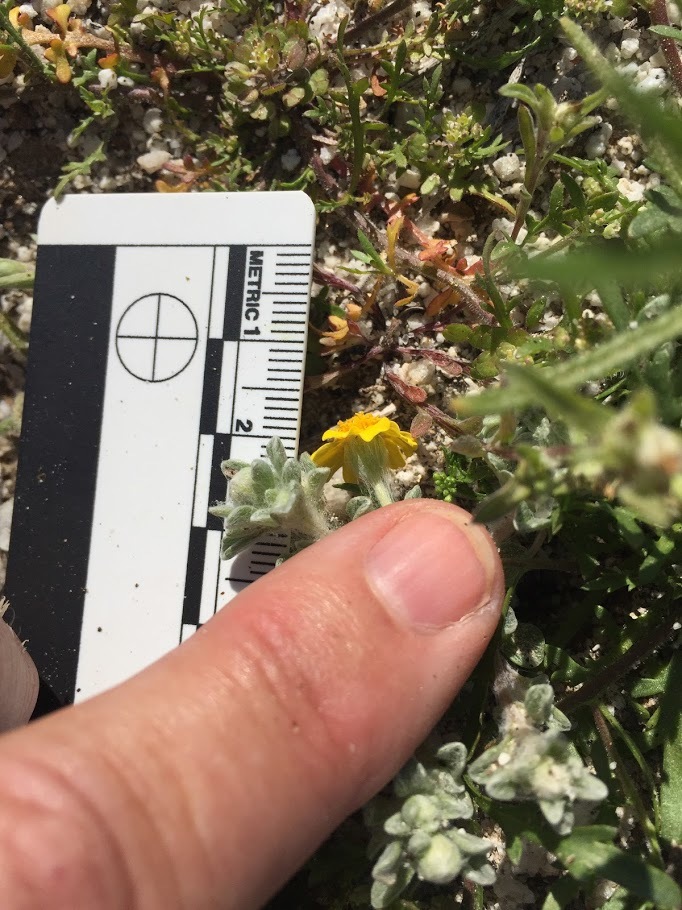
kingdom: Plantae
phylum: Tracheophyta
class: Magnoliopsida
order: Asterales
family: Asteraceae
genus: Eriophyllum
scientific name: Eriophyllum wallacei
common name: Wallace's woolly daisy
